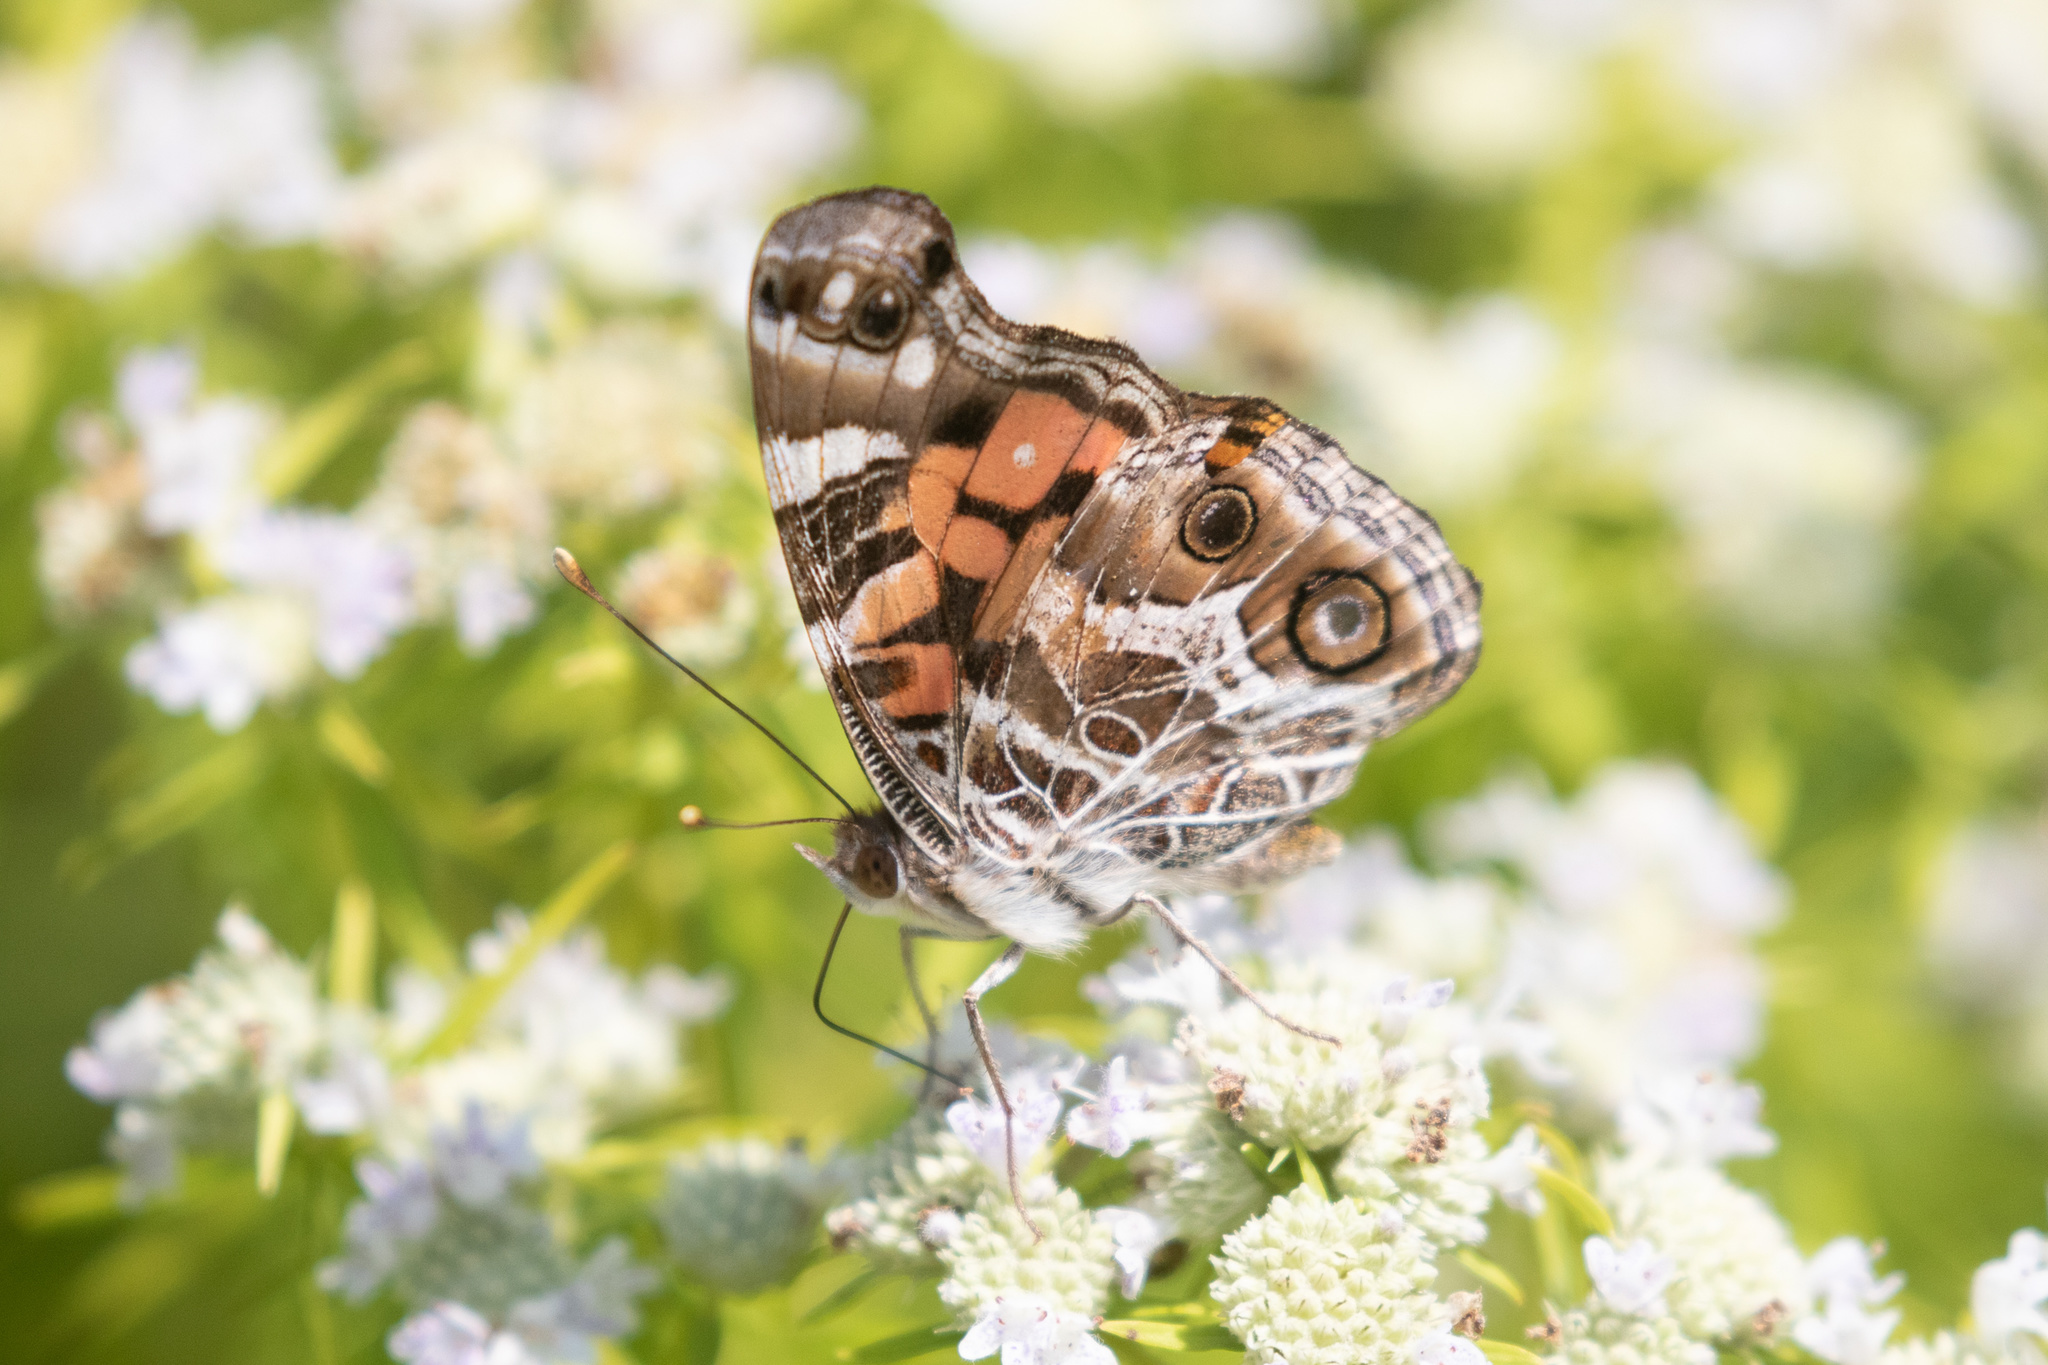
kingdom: Animalia
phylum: Arthropoda
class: Insecta
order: Lepidoptera
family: Nymphalidae
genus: Vanessa
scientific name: Vanessa virginiensis
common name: American lady
